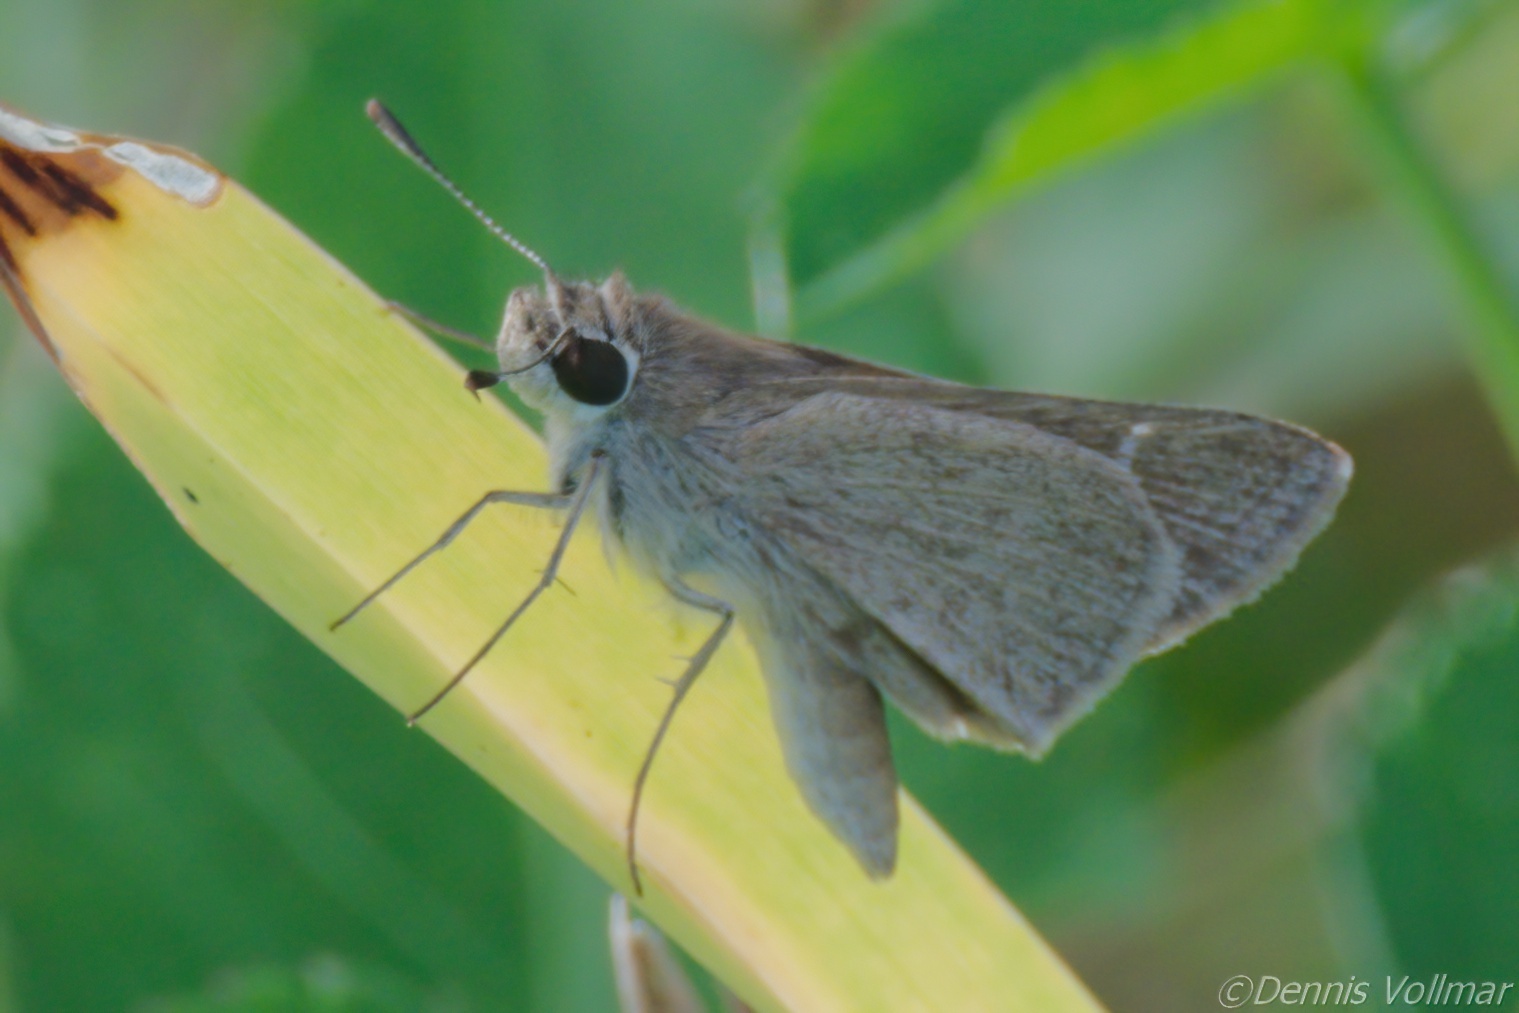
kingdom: Animalia
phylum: Arthropoda
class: Insecta
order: Lepidoptera
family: Hesperiidae
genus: Lerodea
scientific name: Lerodea eufala
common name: Eufala skipper
